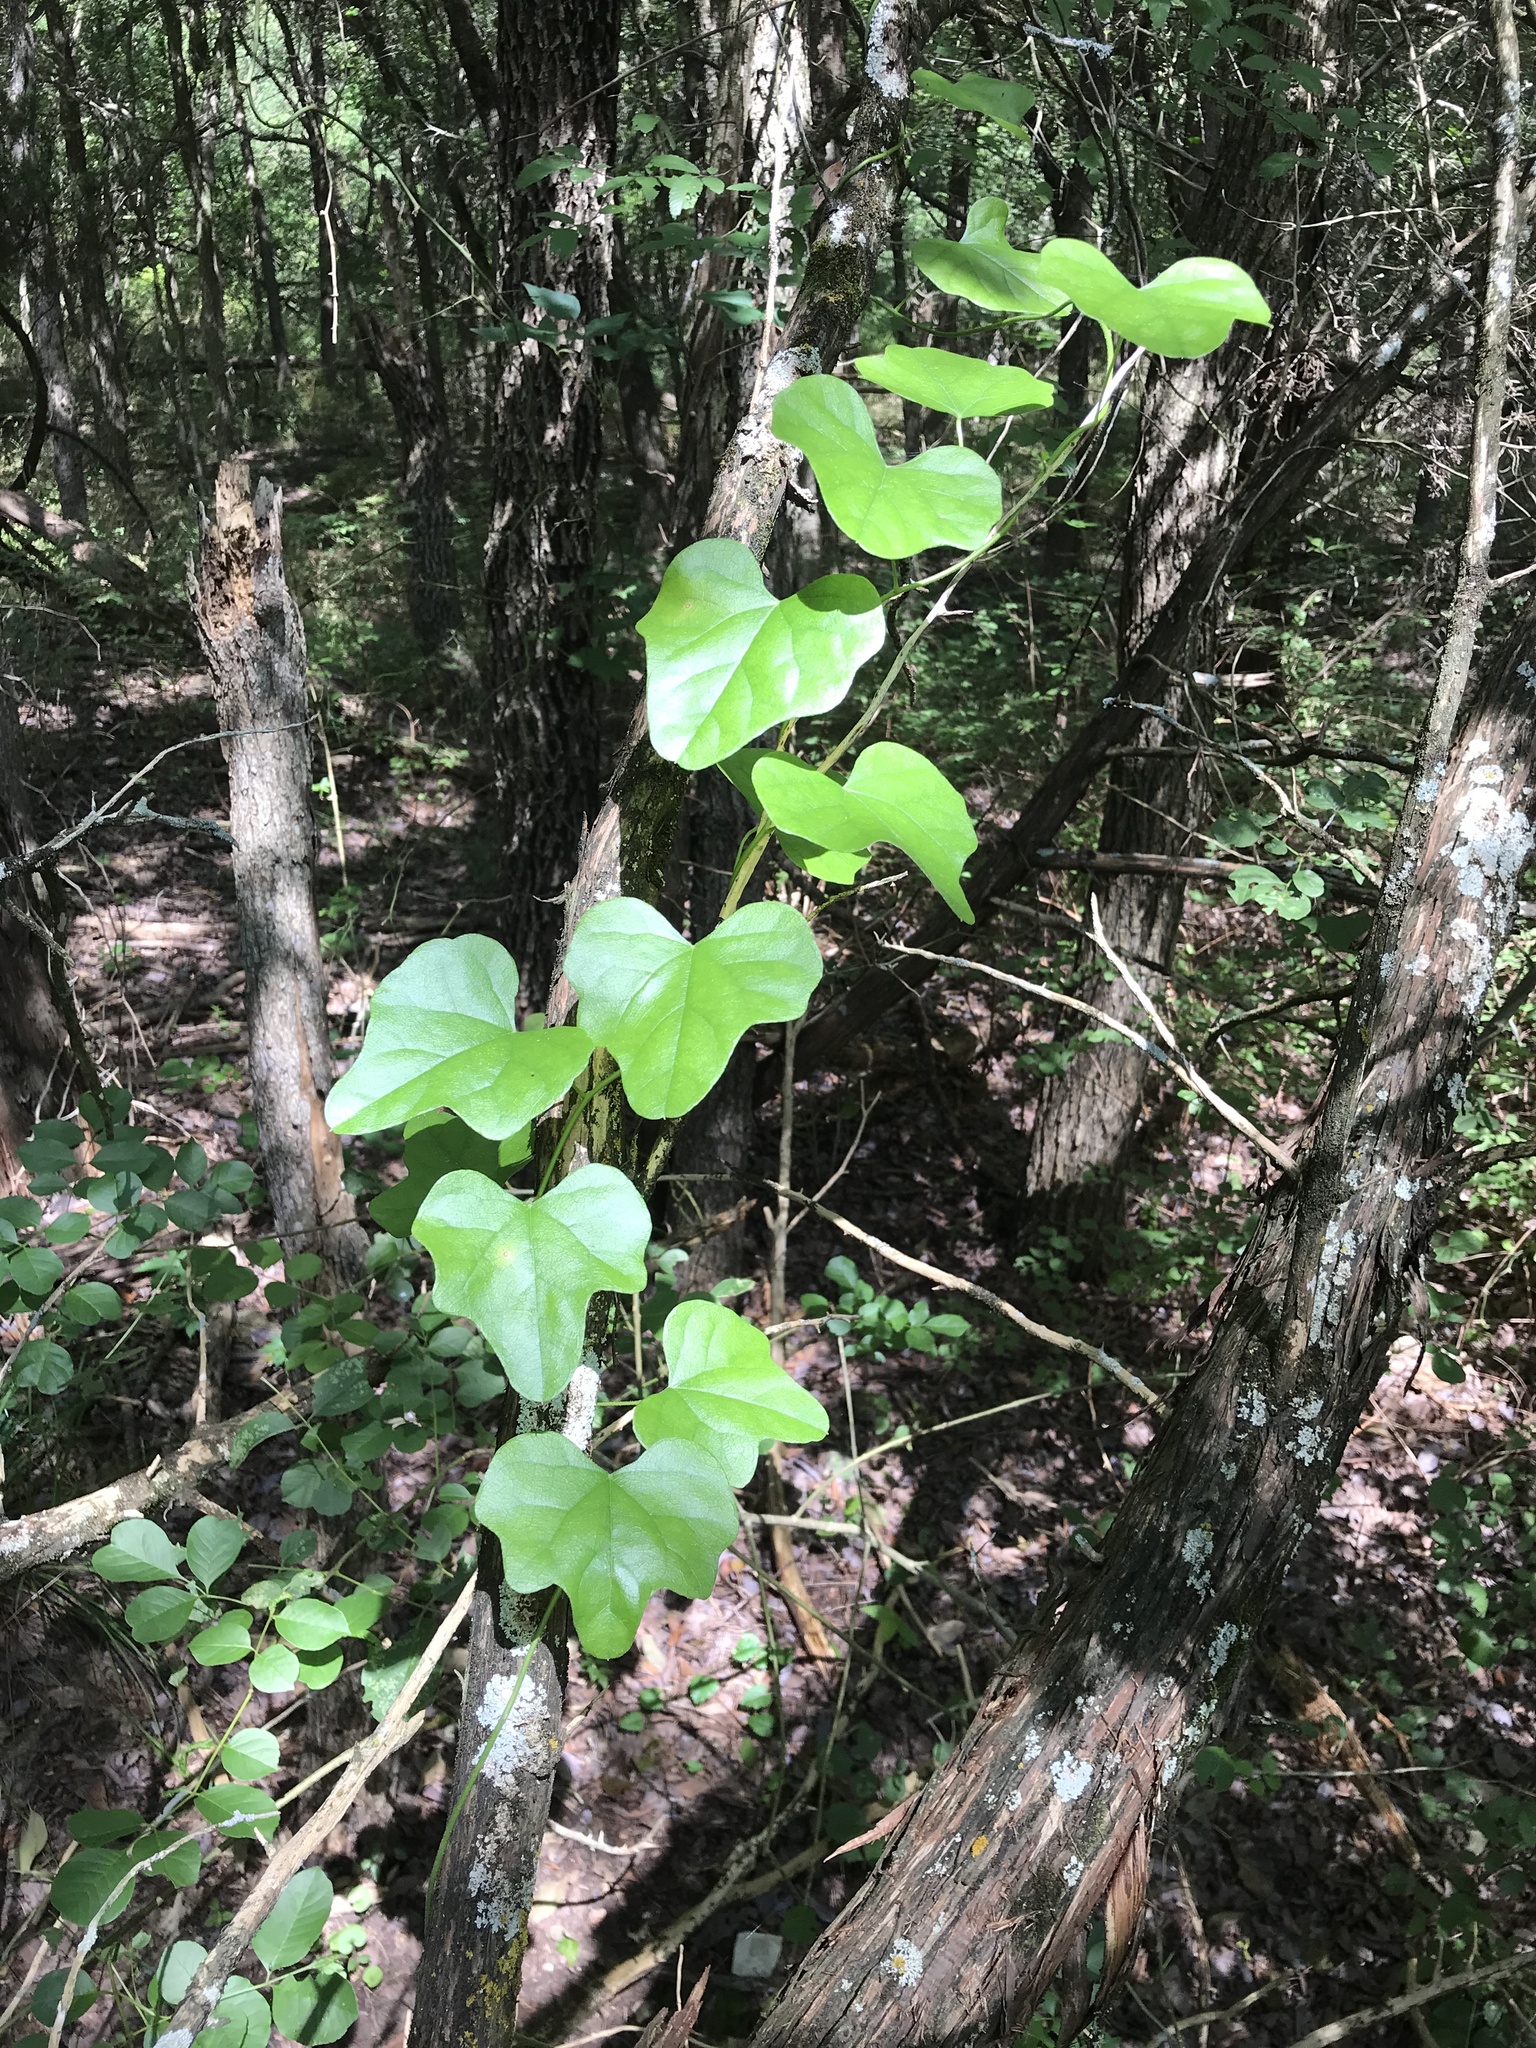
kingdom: Plantae
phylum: Tracheophyta
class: Magnoliopsida
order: Ranunculales
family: Menispermaceae
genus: Cocculus
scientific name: Cocculus carolinus
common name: Carolina moonseed
